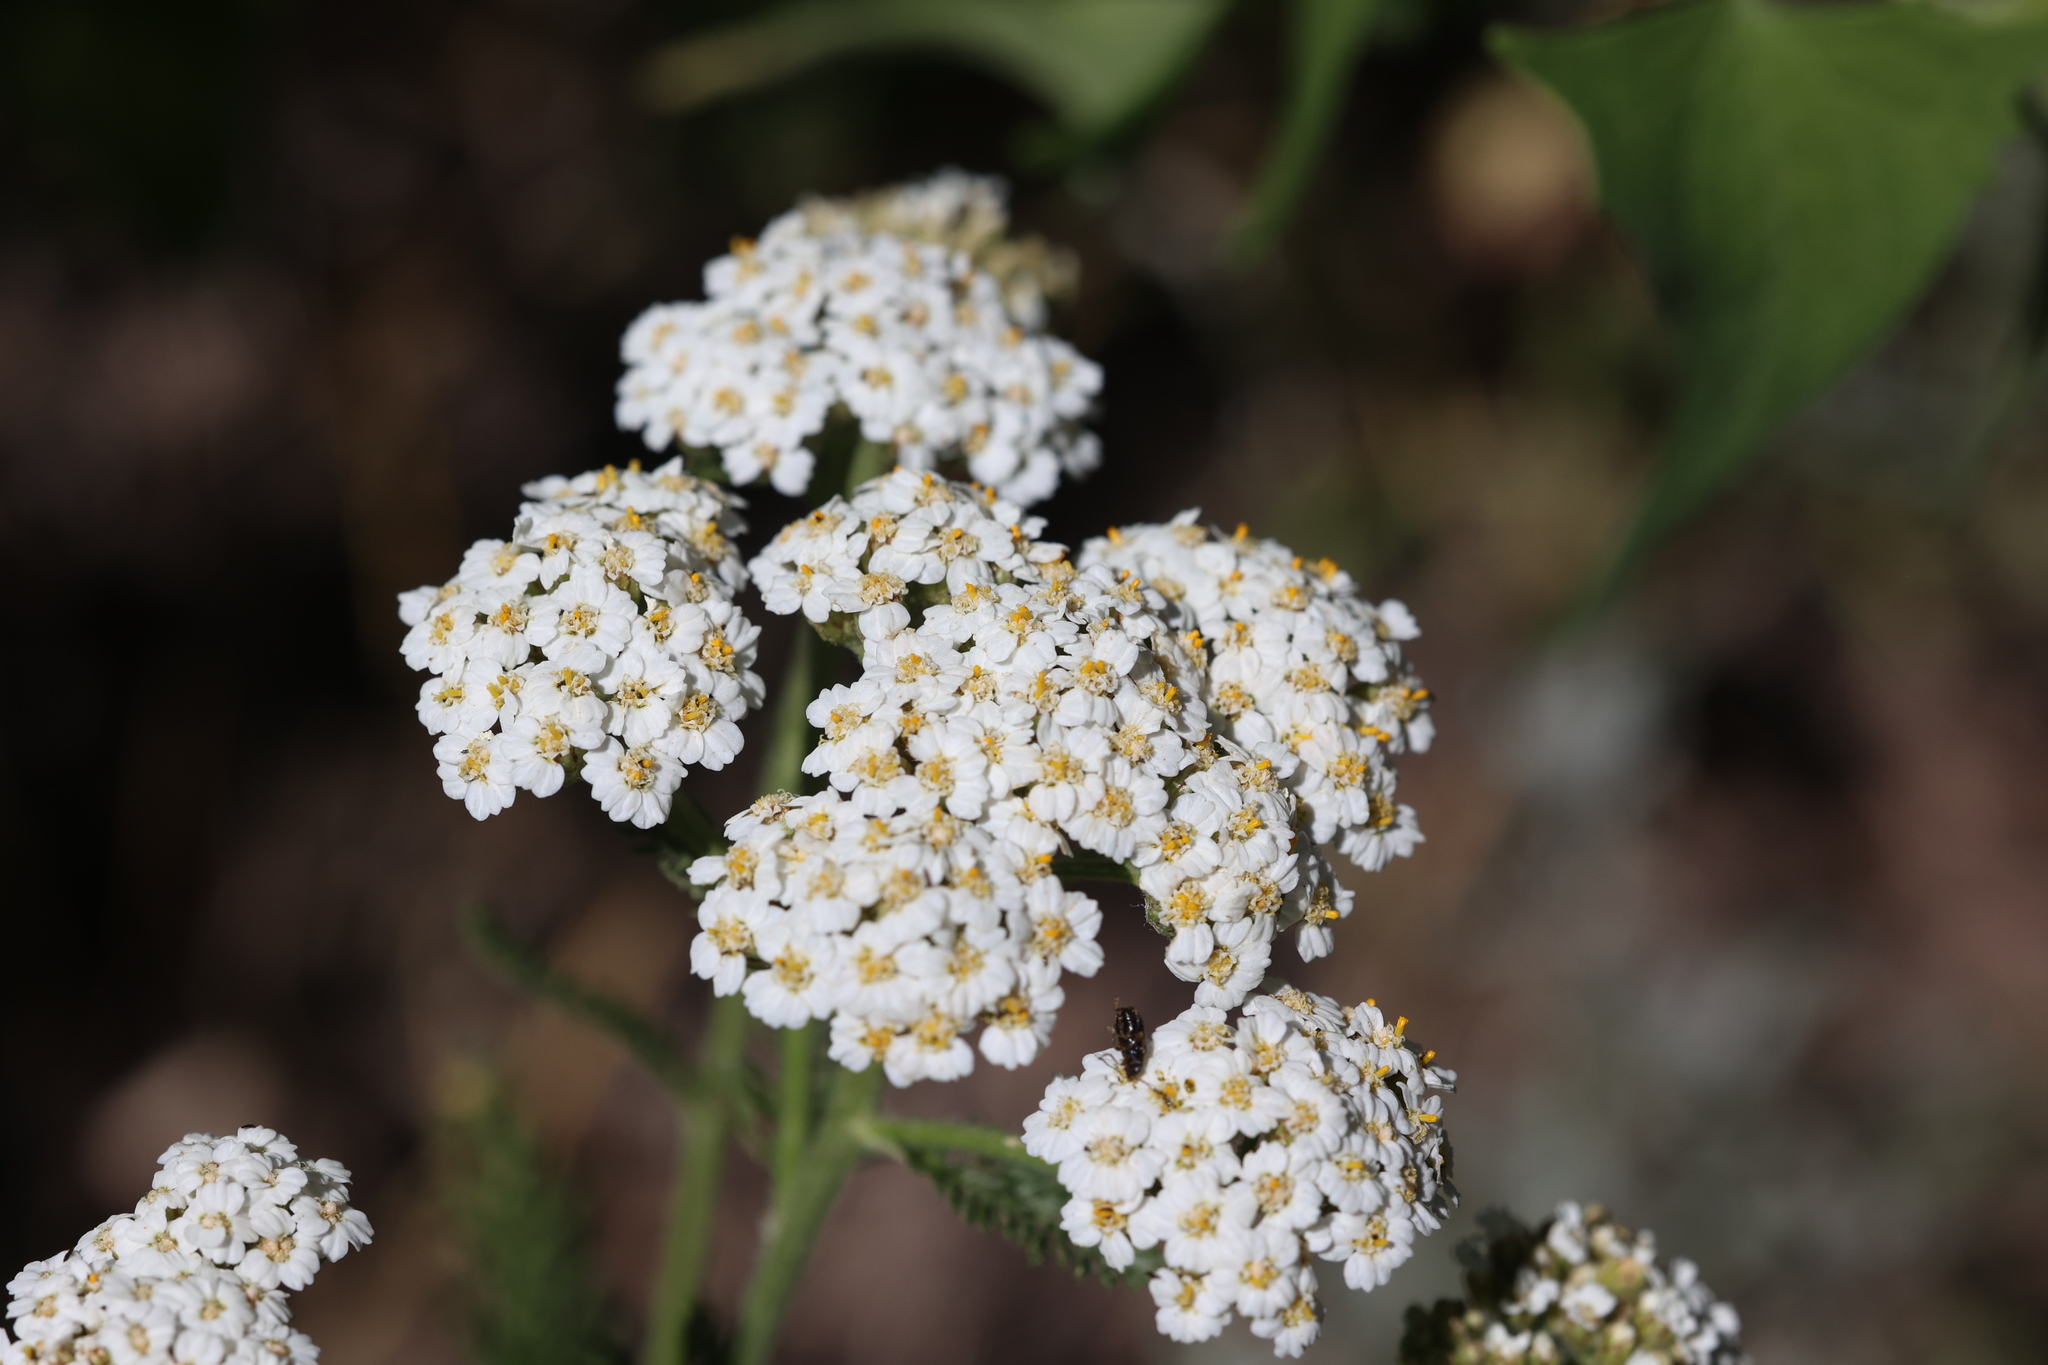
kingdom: Plantae
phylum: Tracheophyta
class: Magnoliopsida
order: Asterales
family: Asteraceae
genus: Achillea
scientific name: Achillea millefolium
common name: Yarrow
